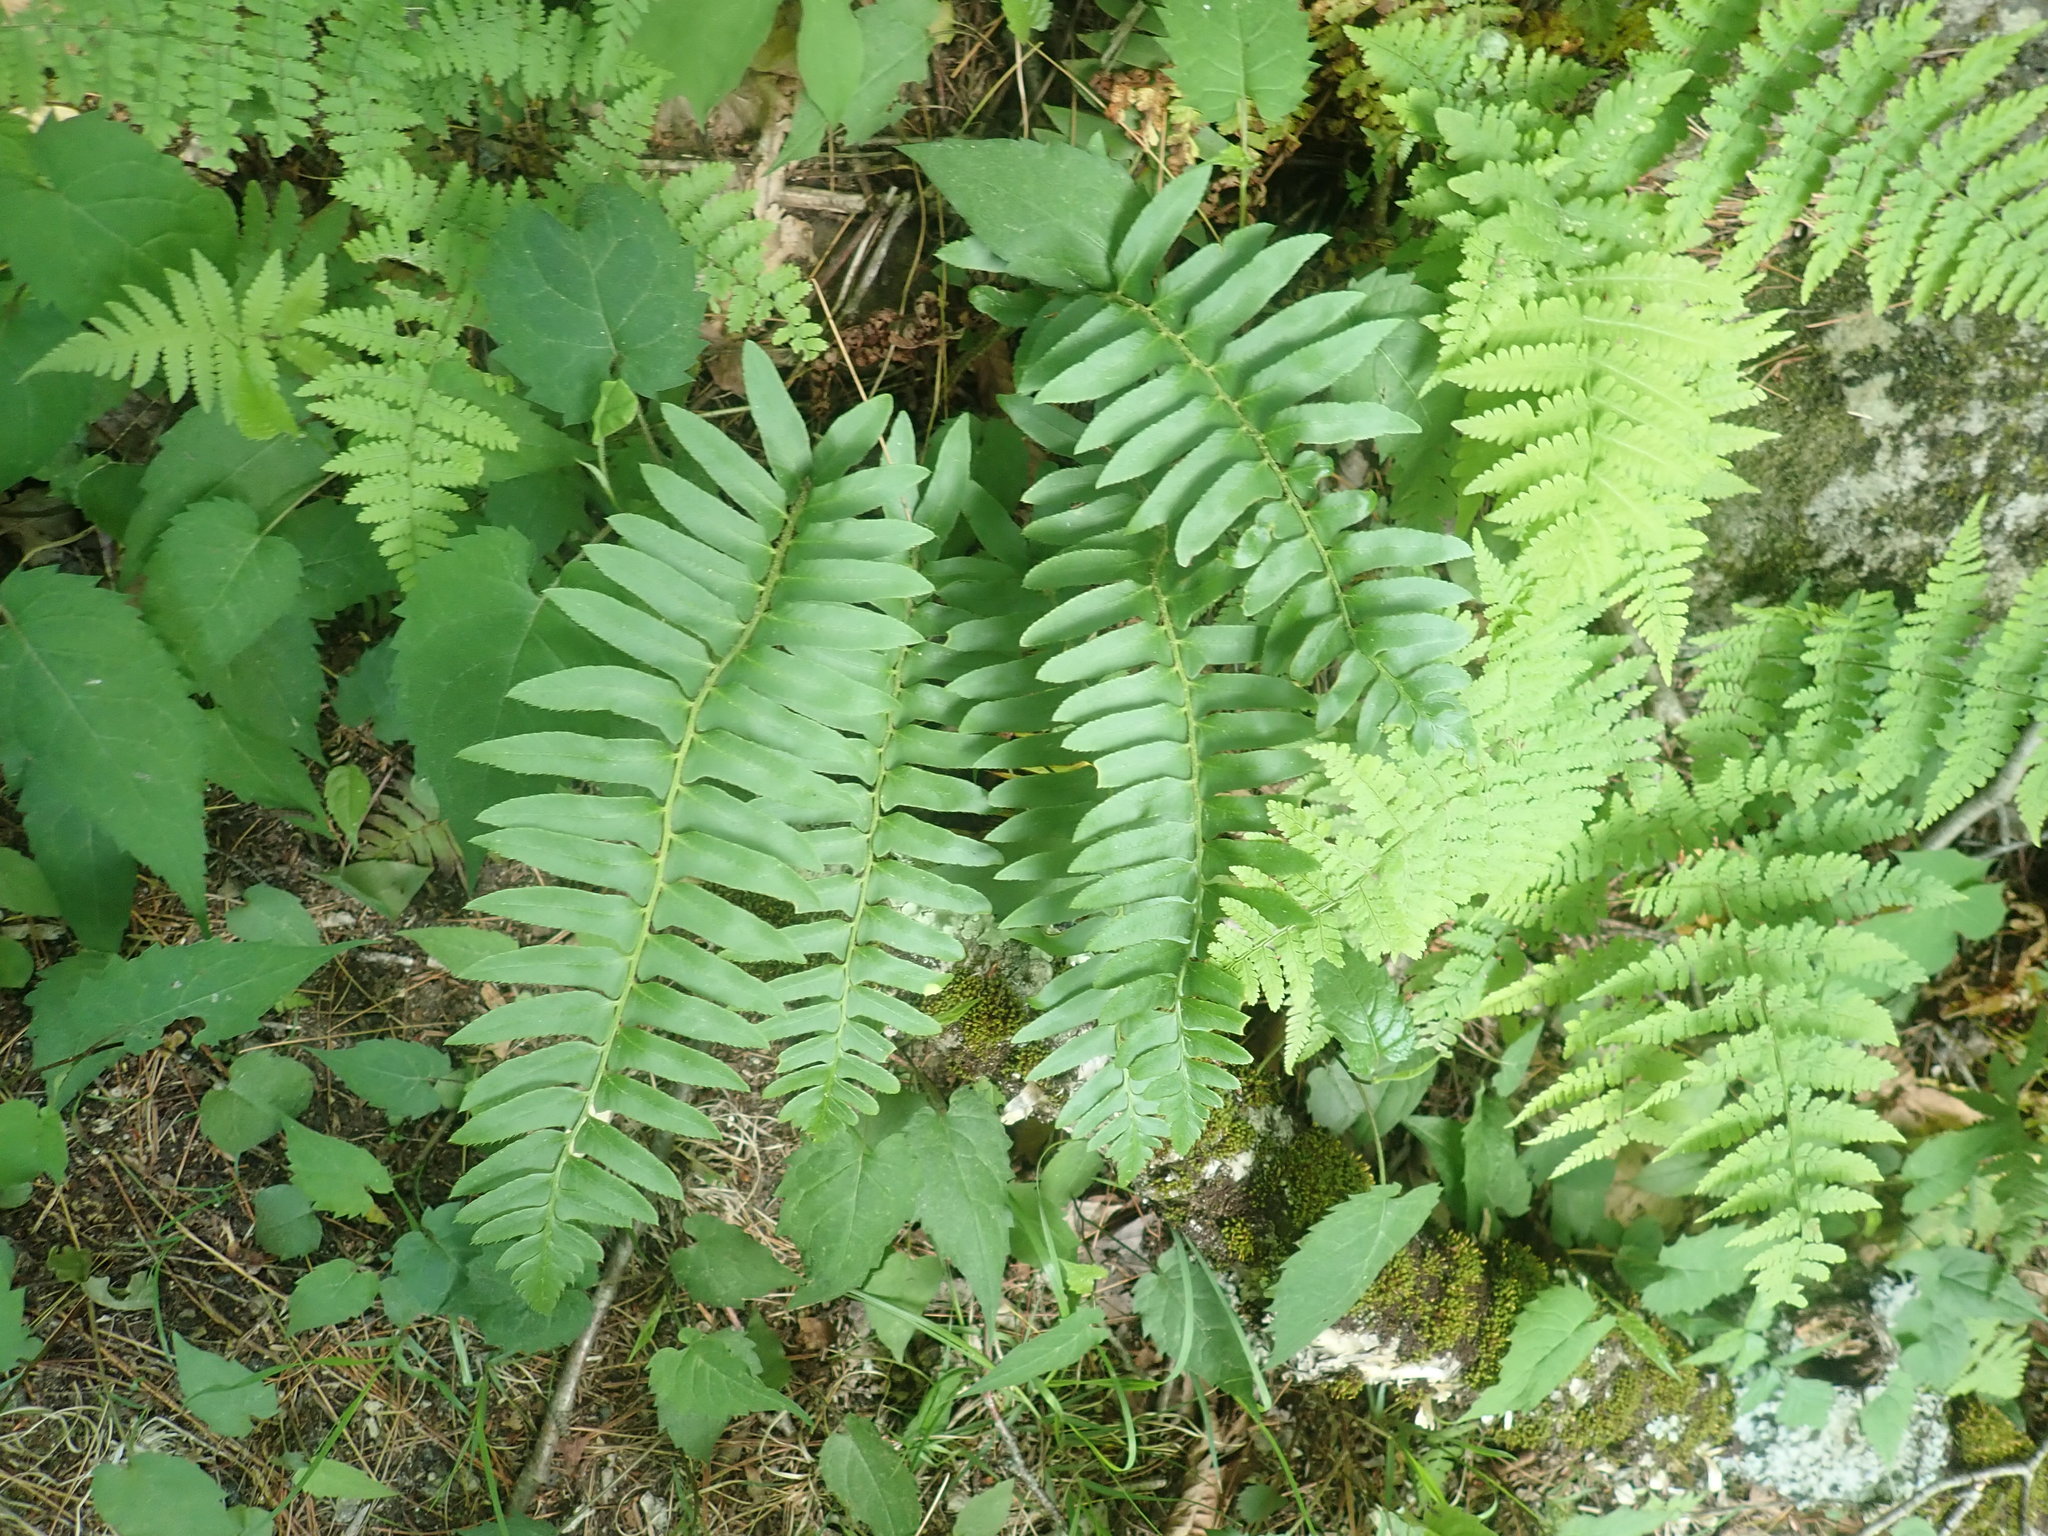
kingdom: Plantae
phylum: Tracheophyta
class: Polypodiopsida
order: Polypodiales
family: Dryopteridaceae
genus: Polystichum
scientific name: Polystichum acrostichoides
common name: Christmas fern
